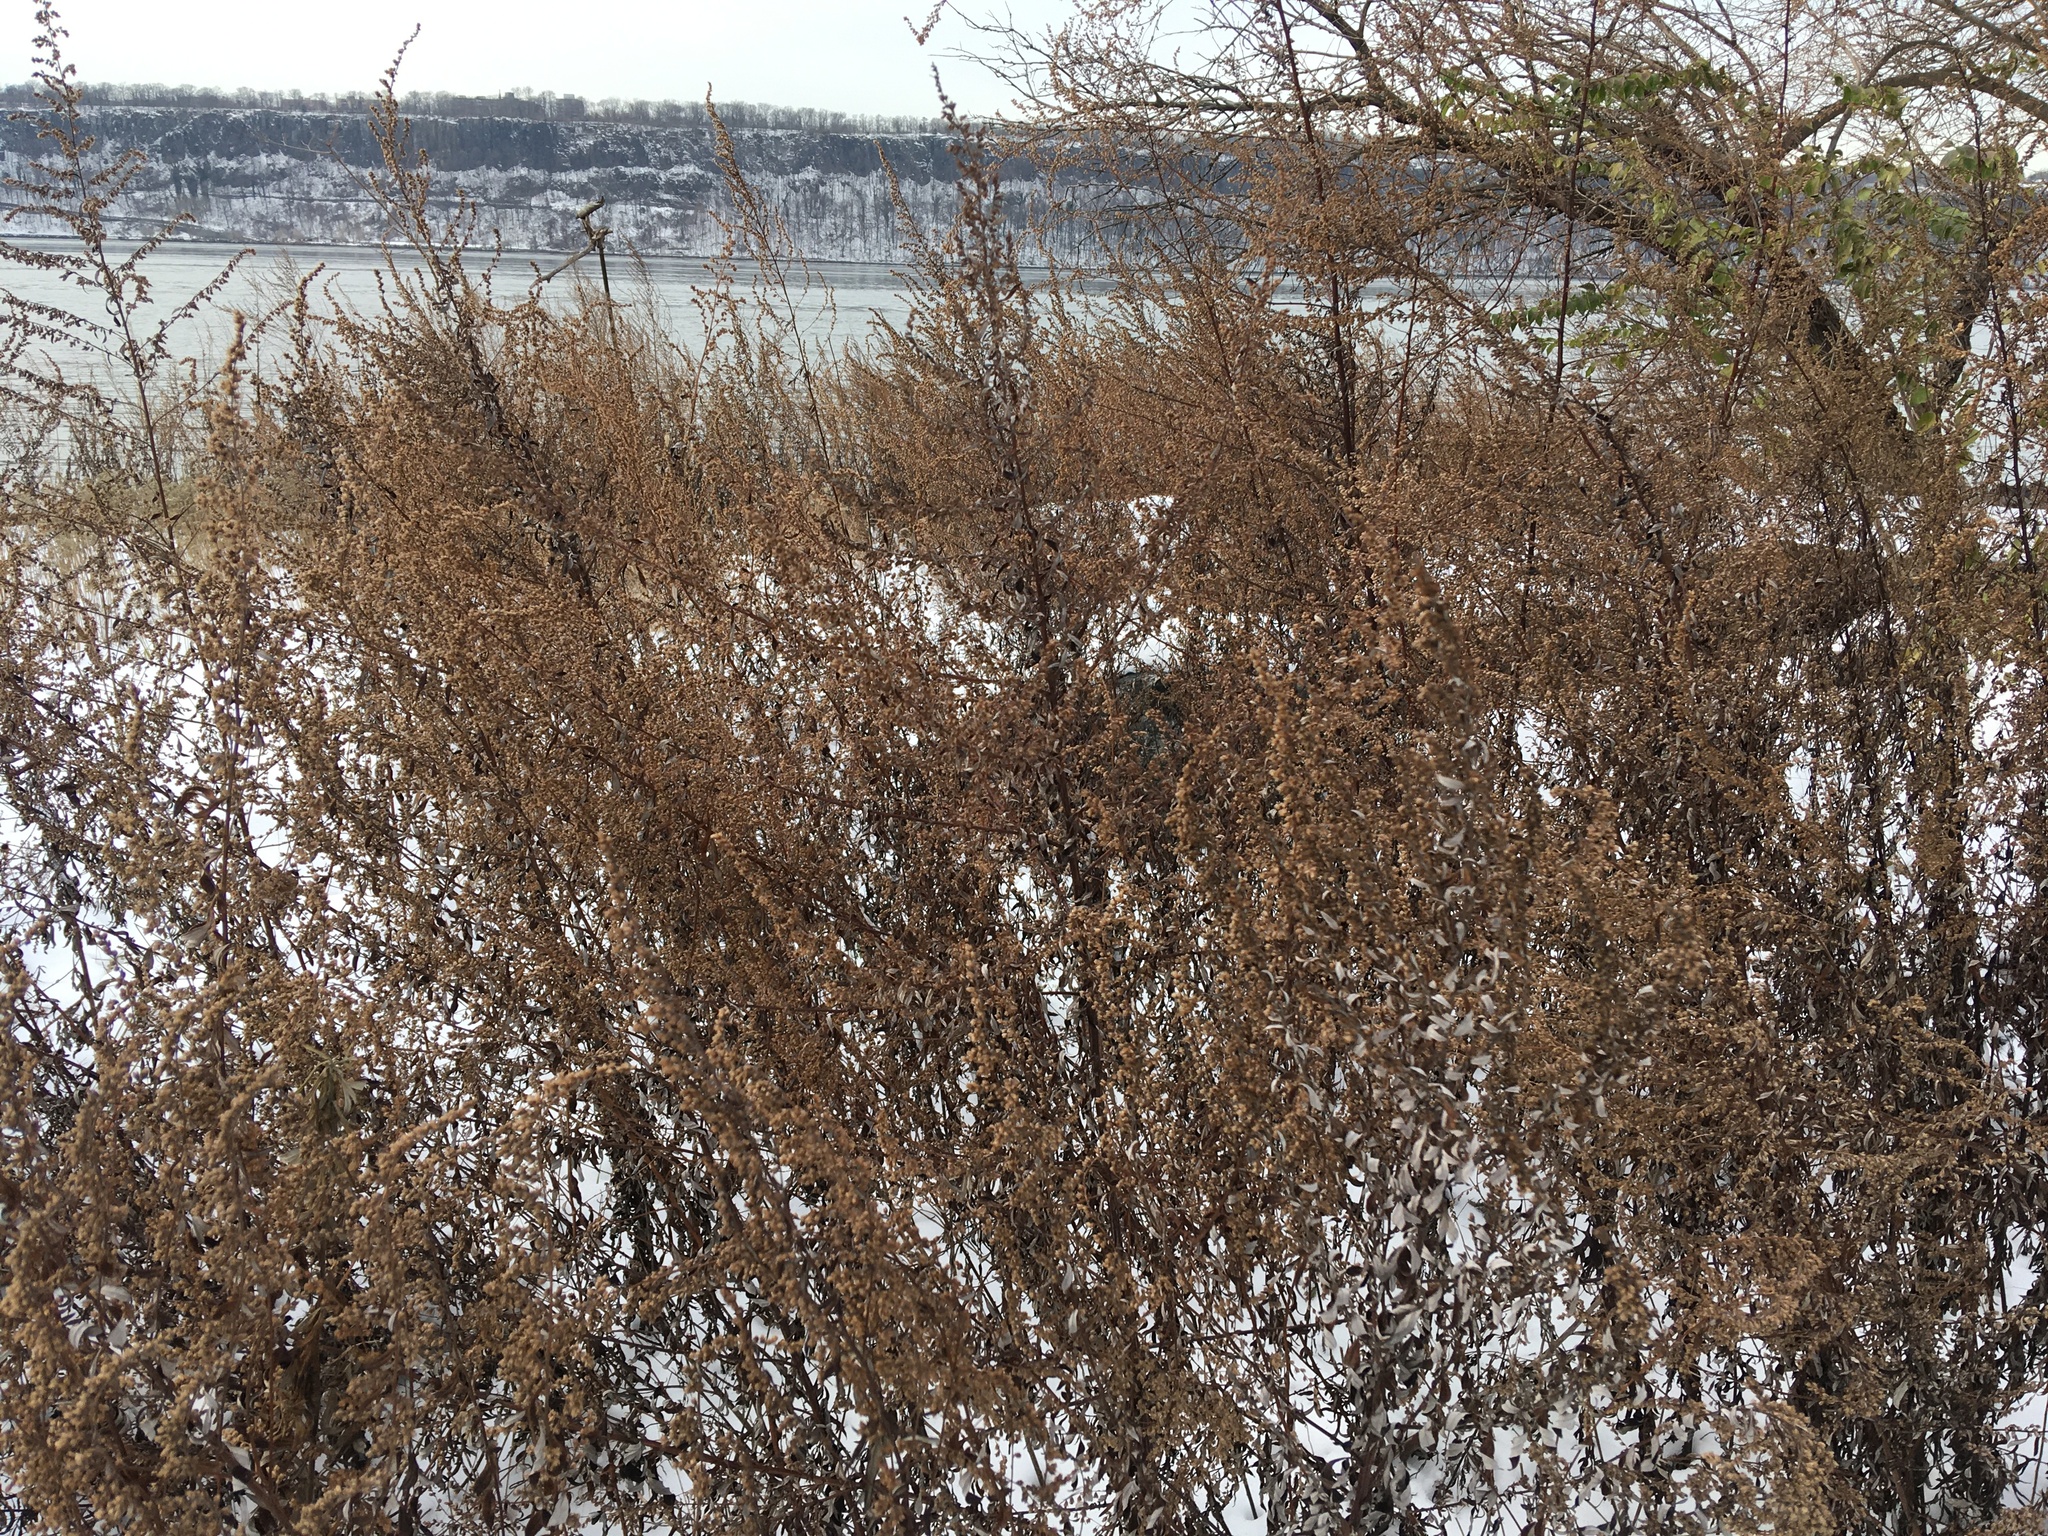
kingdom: Plantae
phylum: Tracheophyta
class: Magnoliopsida
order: Asterales
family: Asteraceae
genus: Artemisia
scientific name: Artemisia vulgaris
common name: Mugwort
